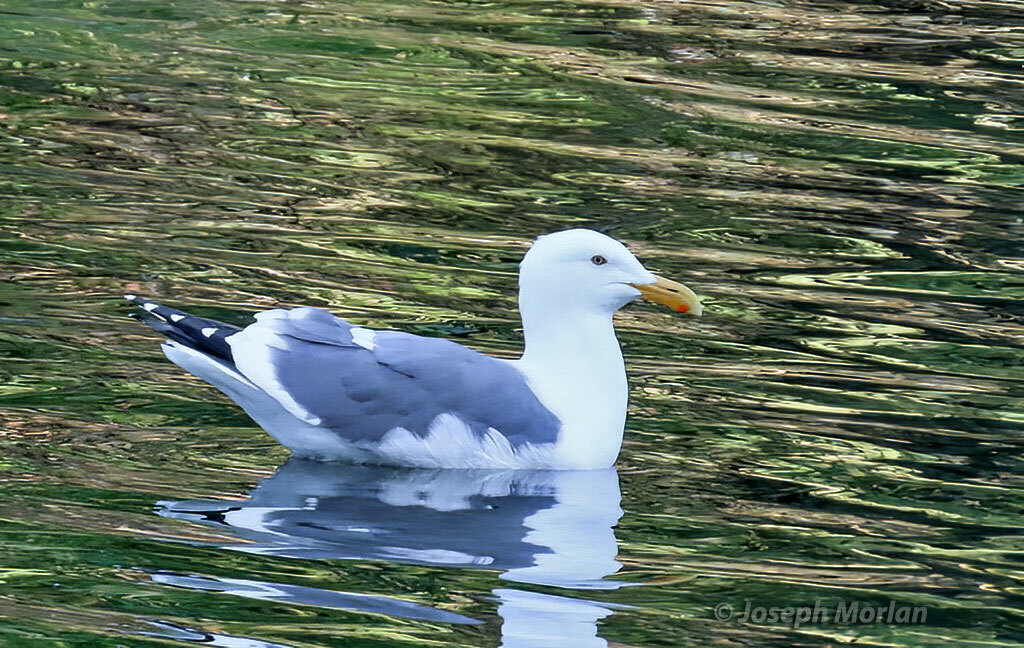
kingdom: Animalia
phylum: Chordata
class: Aves
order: Charadriiformes
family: Laridae
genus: Larus
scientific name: Larus occidentalis
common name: Western gull
